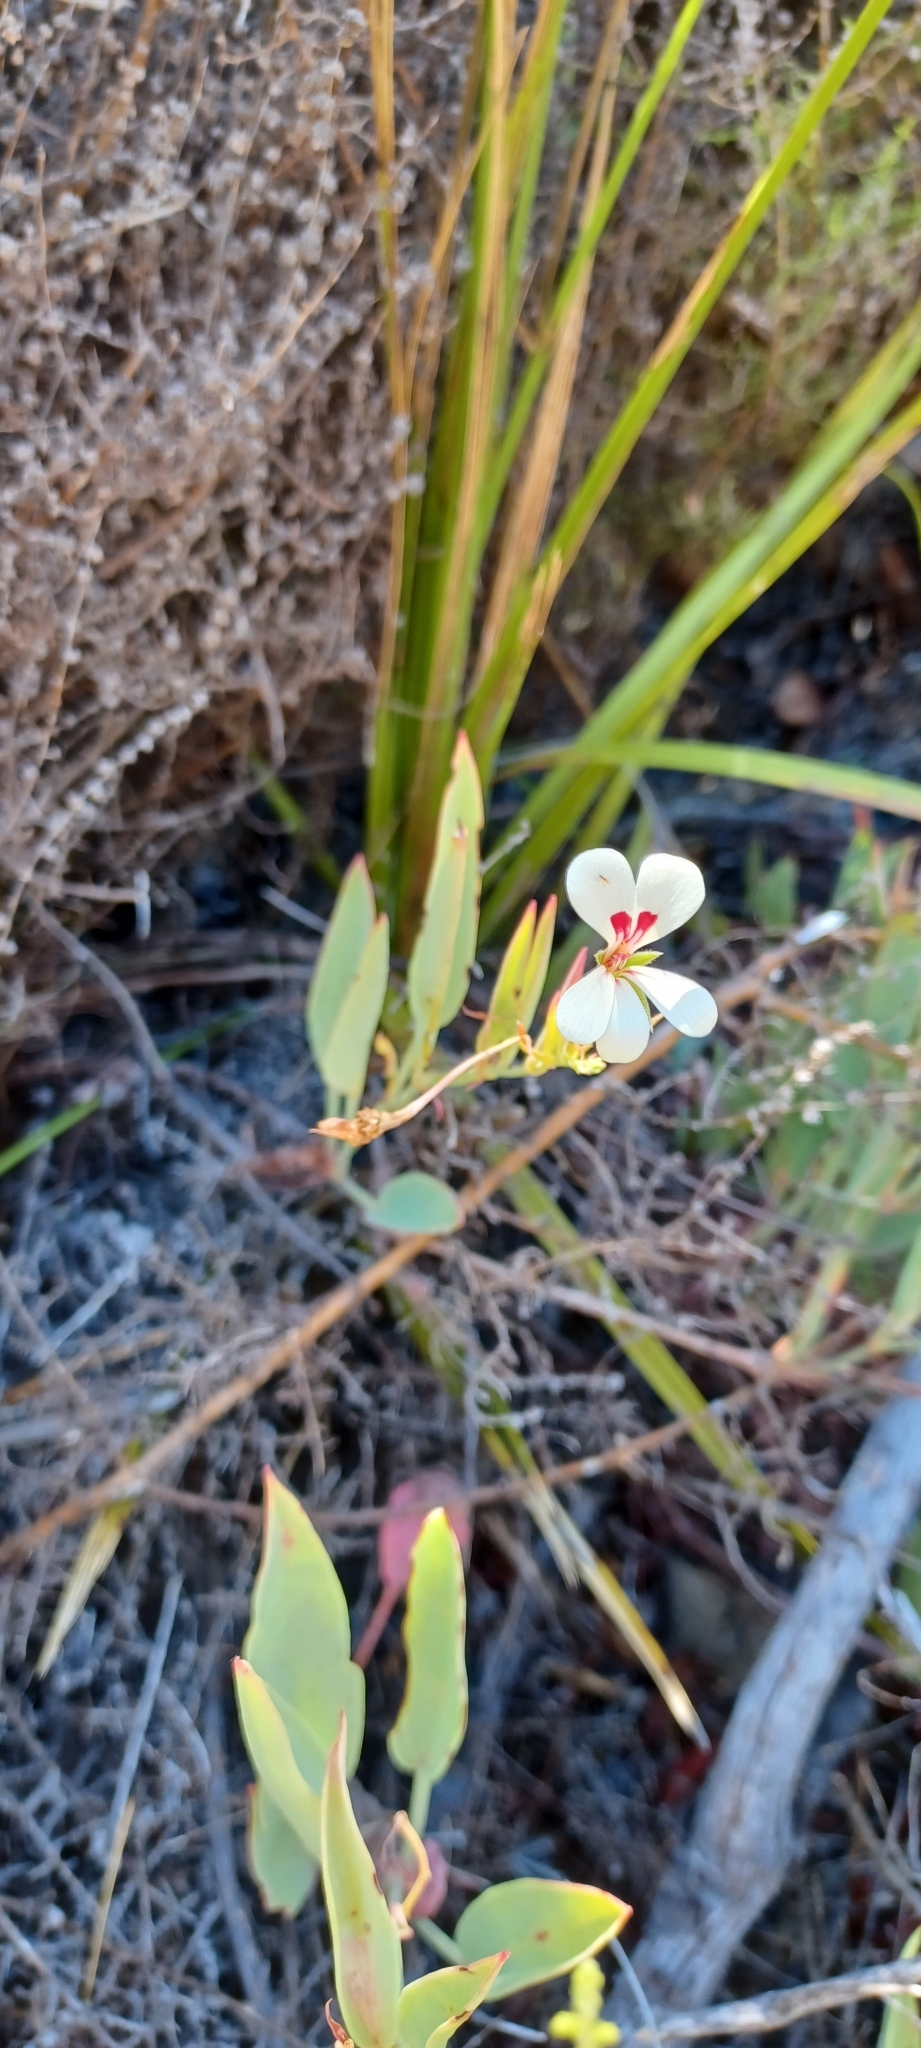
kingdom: Plantae
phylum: Tracheophyta
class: Magnoliopsida
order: Geraniales
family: Geraniaceae
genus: Pelargonium
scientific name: Pelargonium lanceolatum
